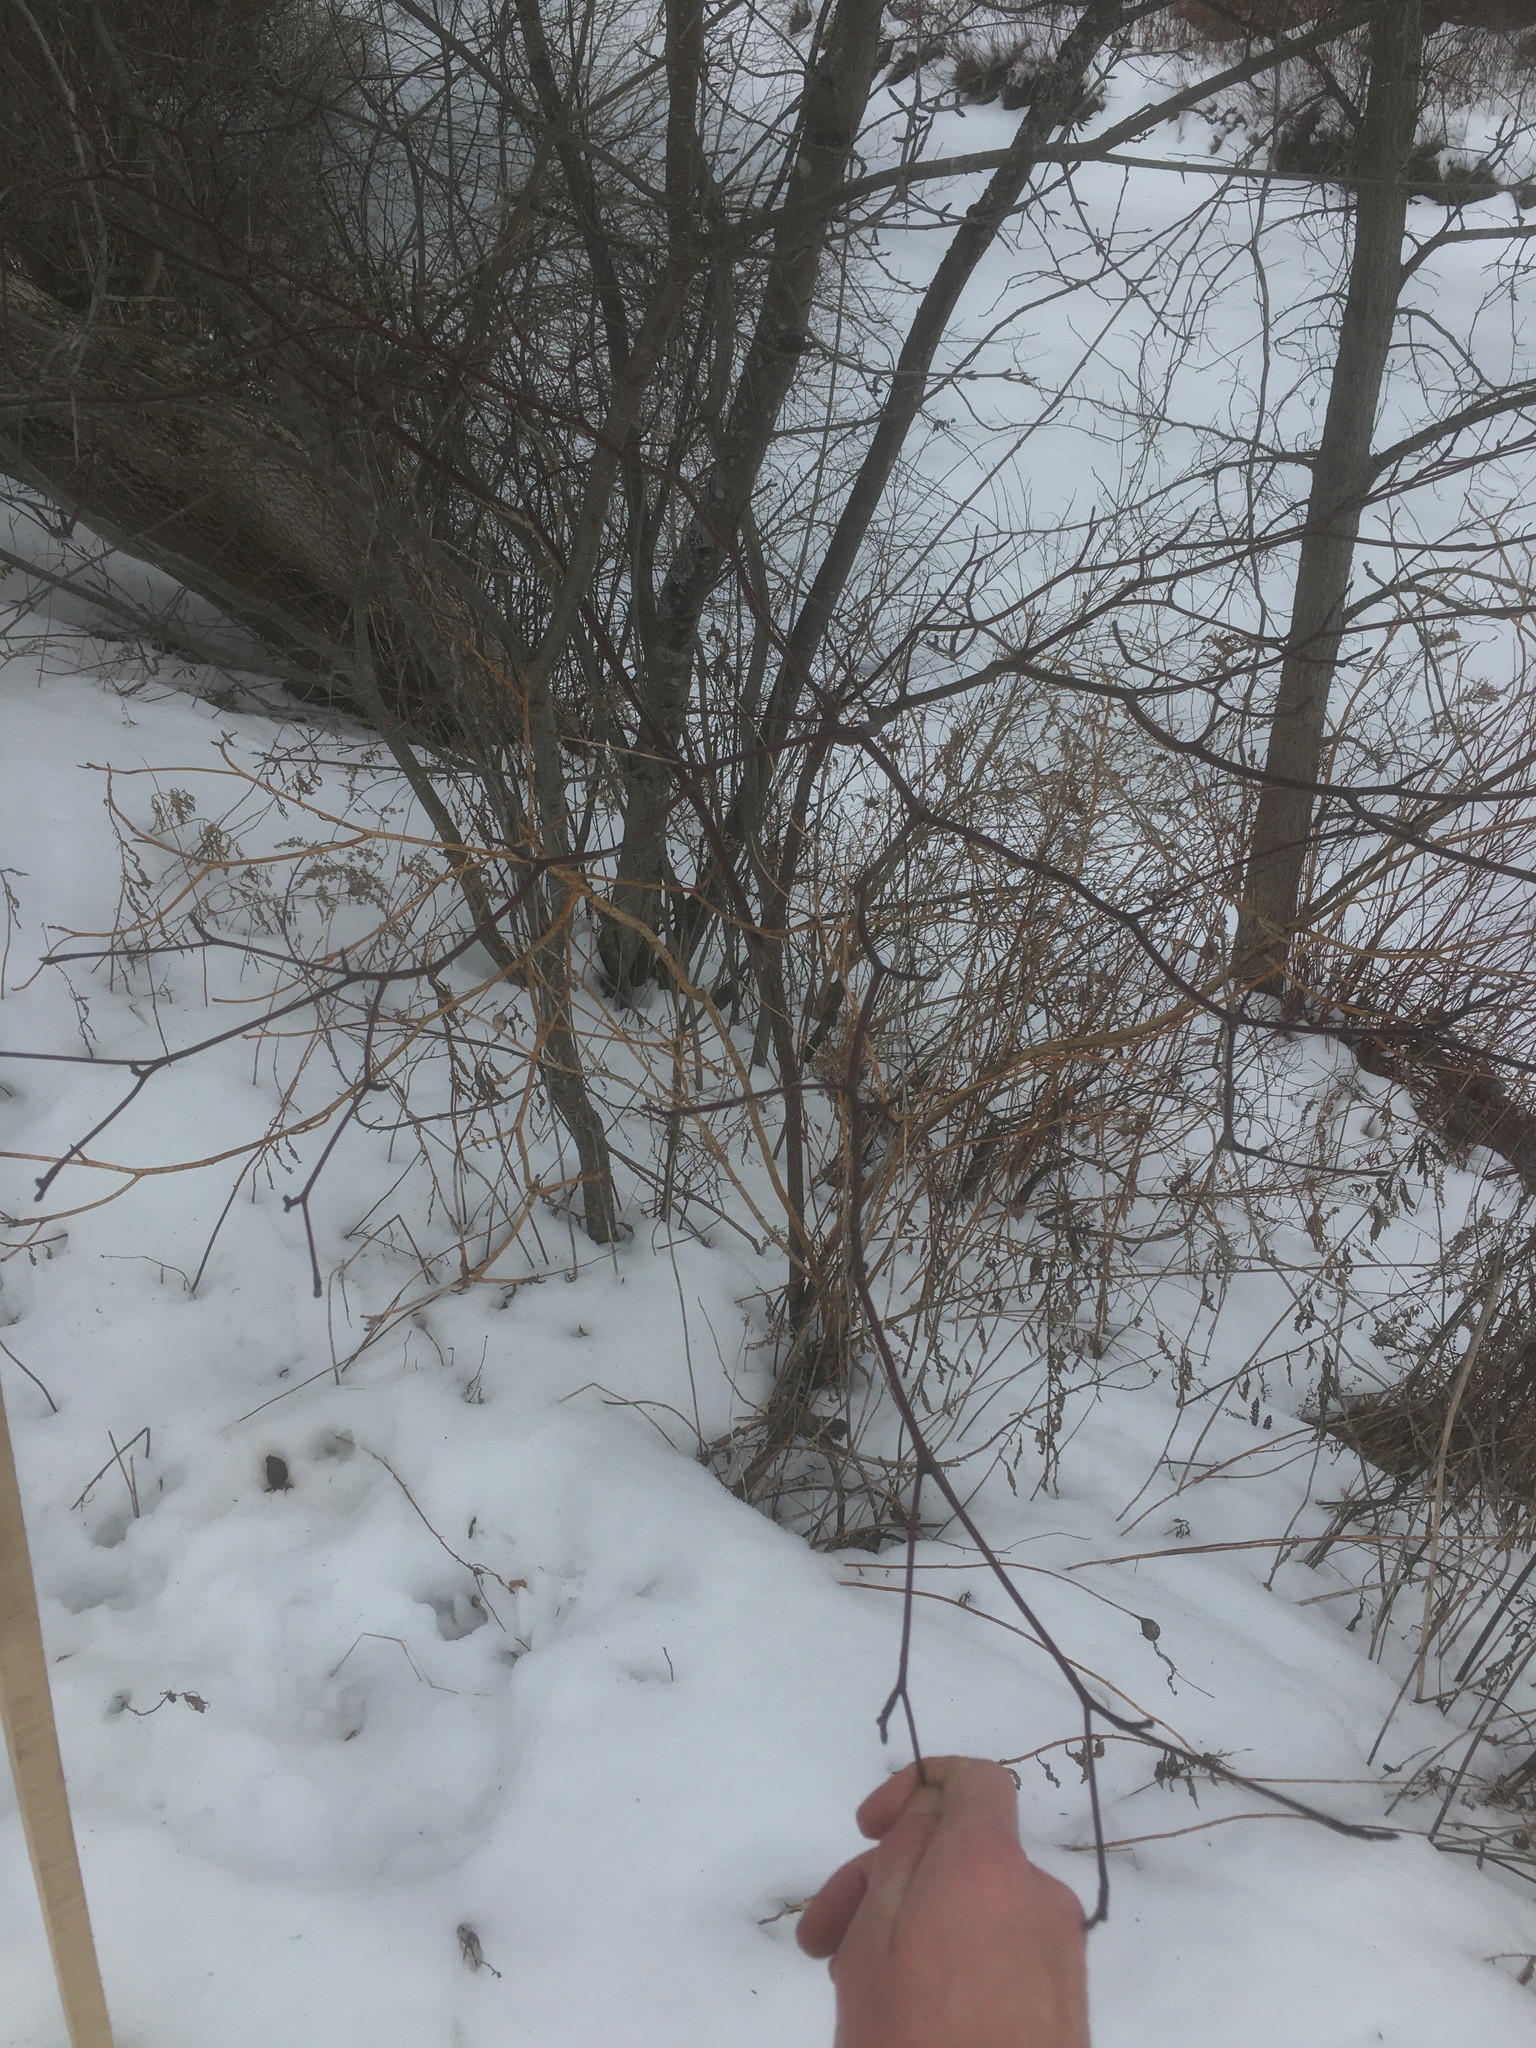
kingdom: Plantae
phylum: Tracheophyta
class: Magnoliopsida
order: Cornales
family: Cornaceae
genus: Cornus
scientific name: Cornus alternifolia
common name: Pagoda dogwood
